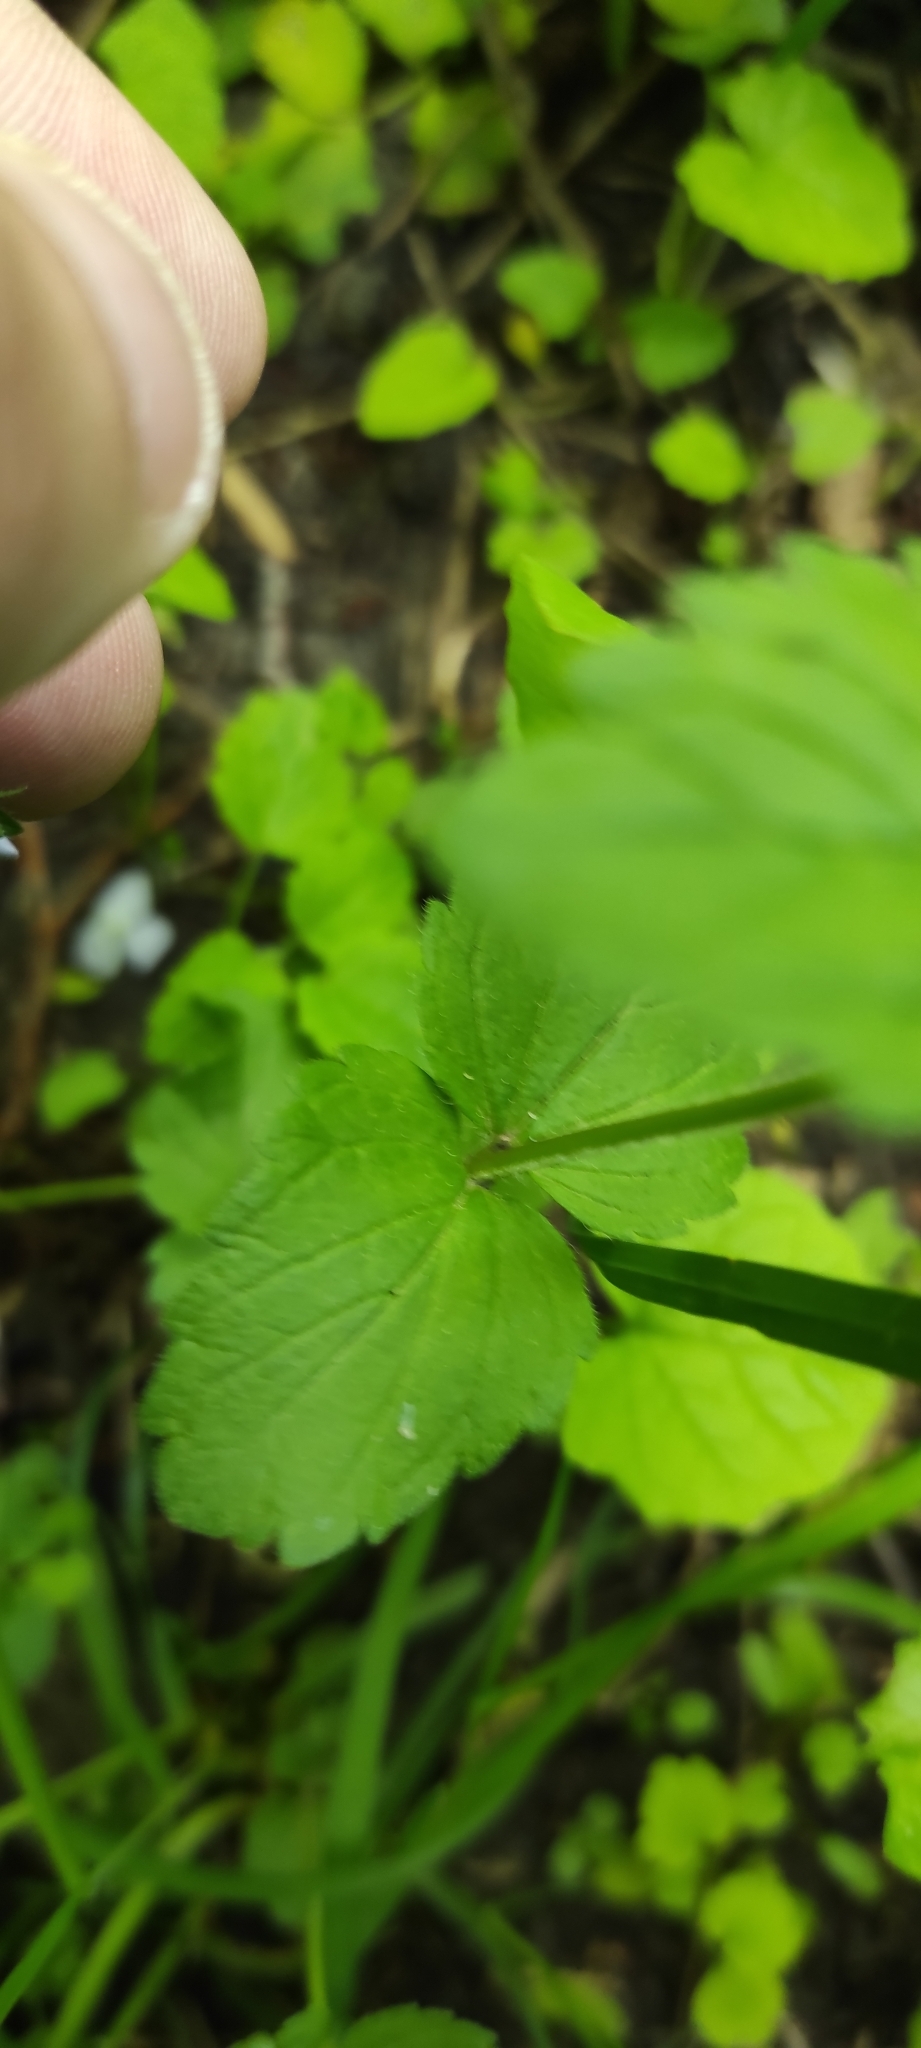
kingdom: Plantae
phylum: Tracheophyta
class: Magnoliopsida
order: Lamiales
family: Plantaginaceae
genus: Veronica
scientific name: Veronica chamaedrys
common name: Germander speedwell
